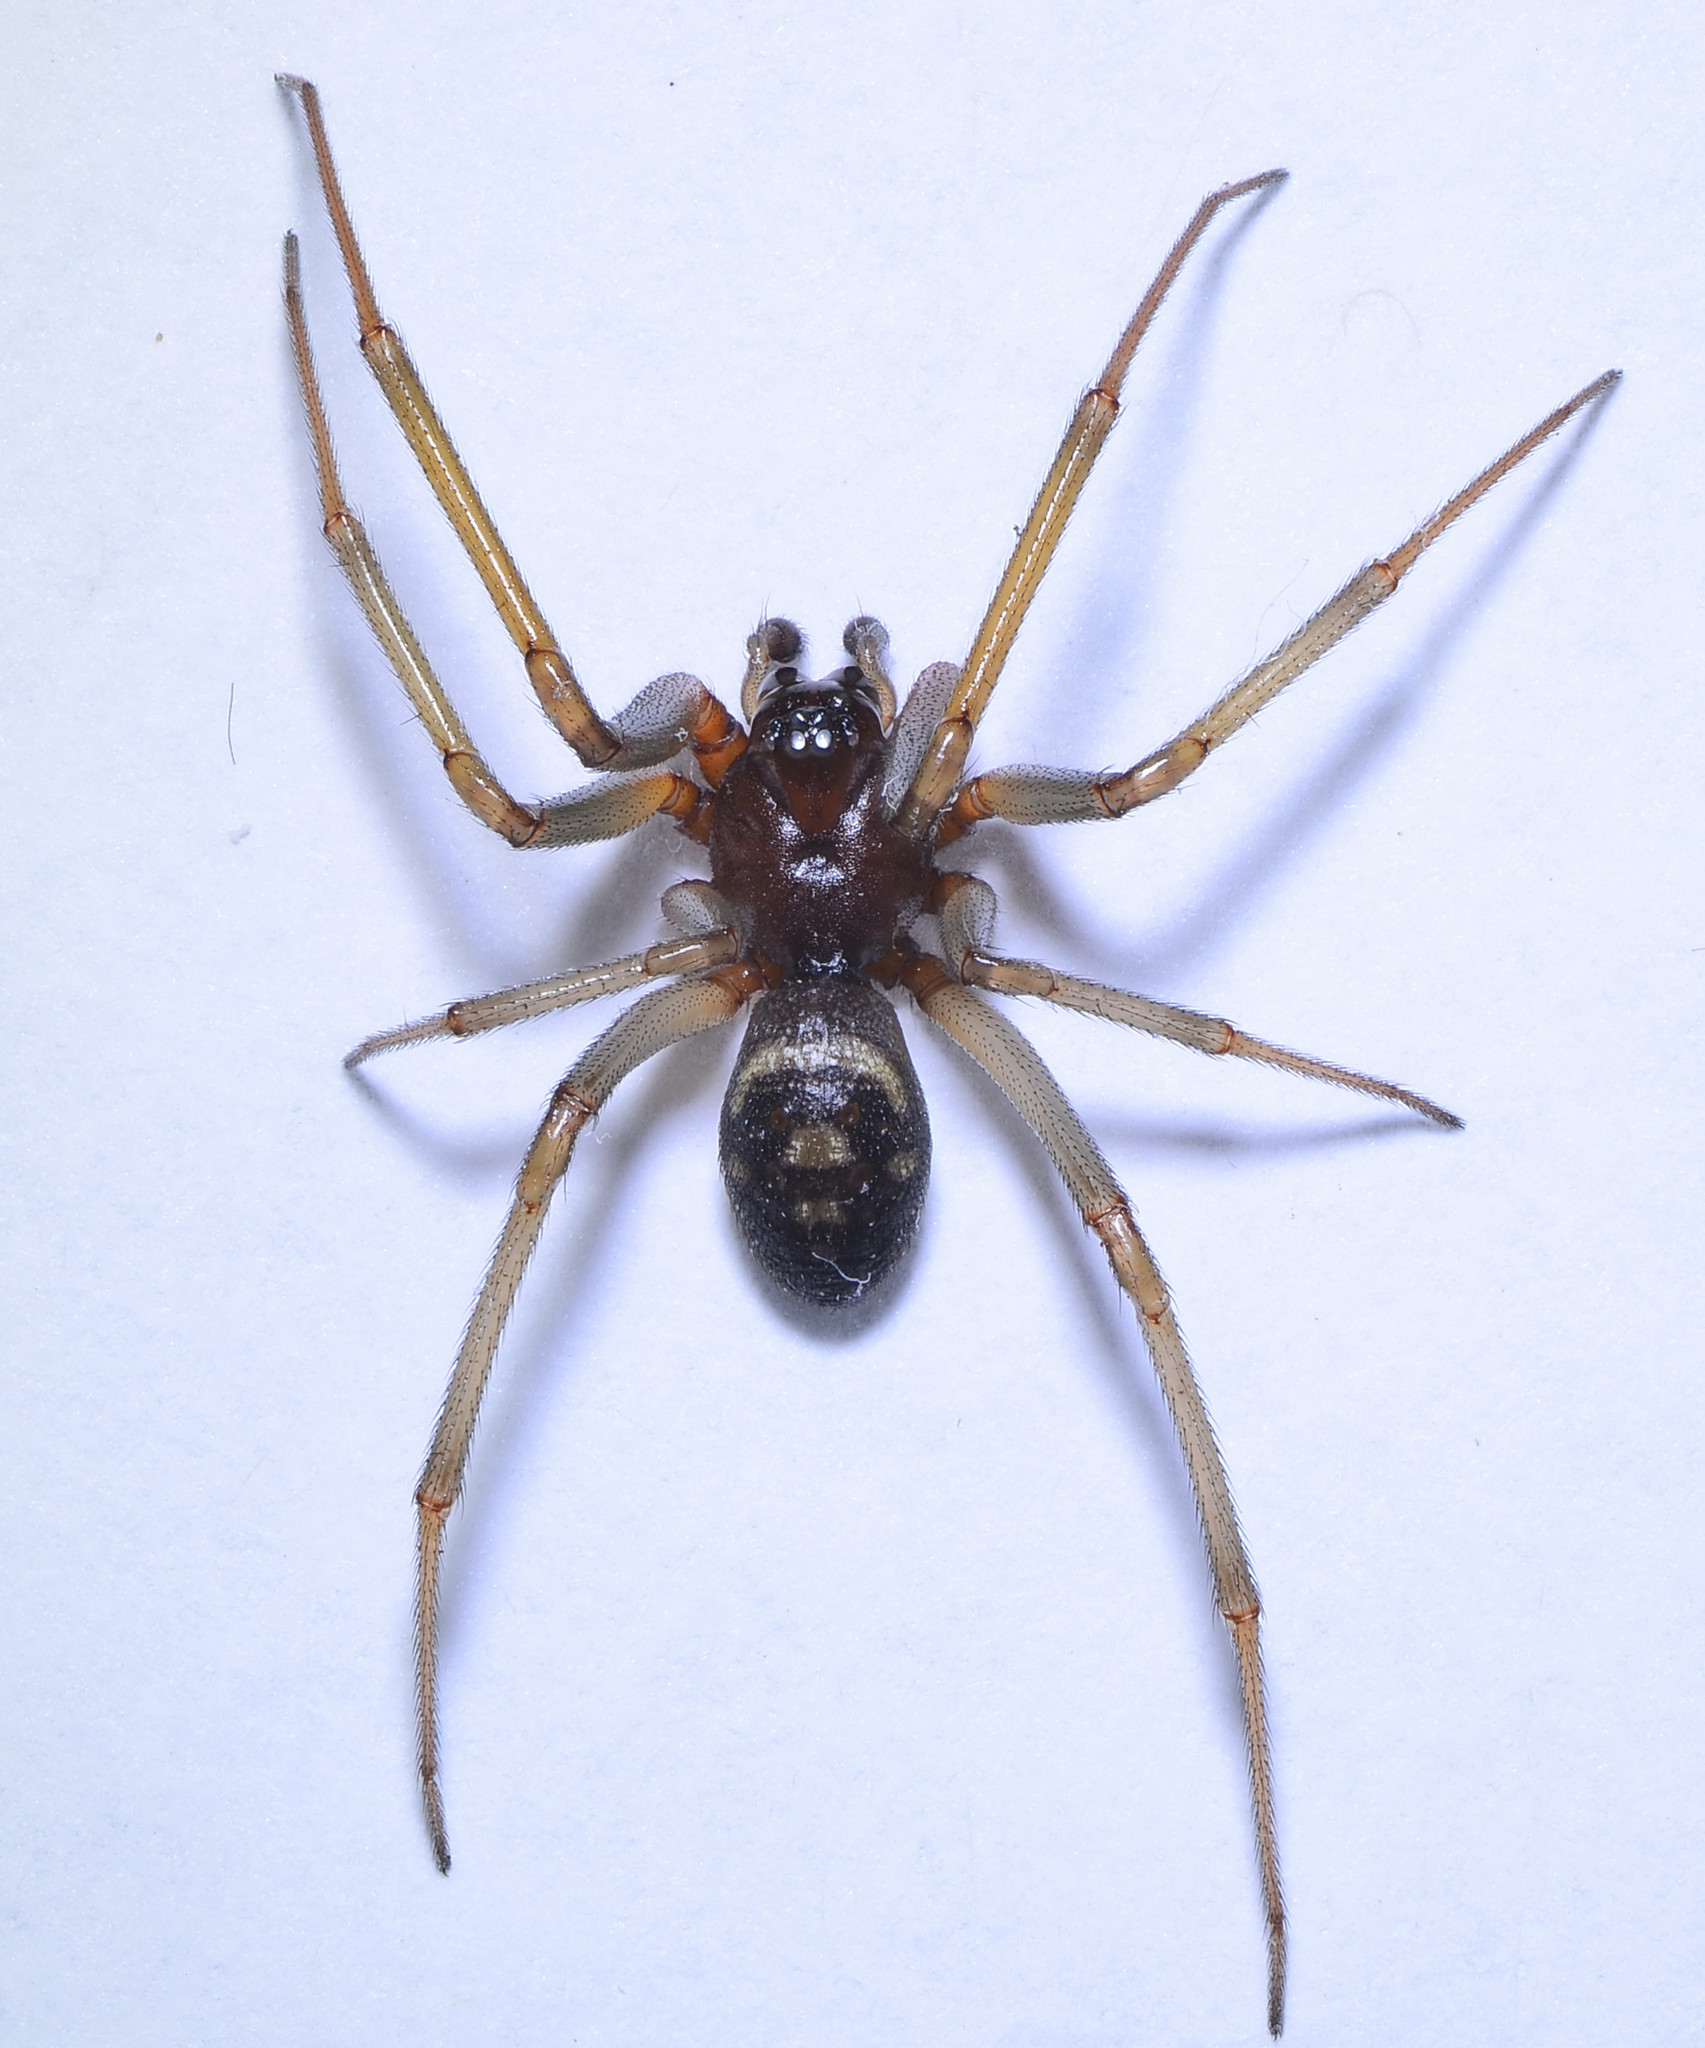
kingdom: Animalia
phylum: Arthropoda
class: Arachnida
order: Araneae
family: Theridiidae
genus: Steatoda
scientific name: Steatoda grossa
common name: False black widow
